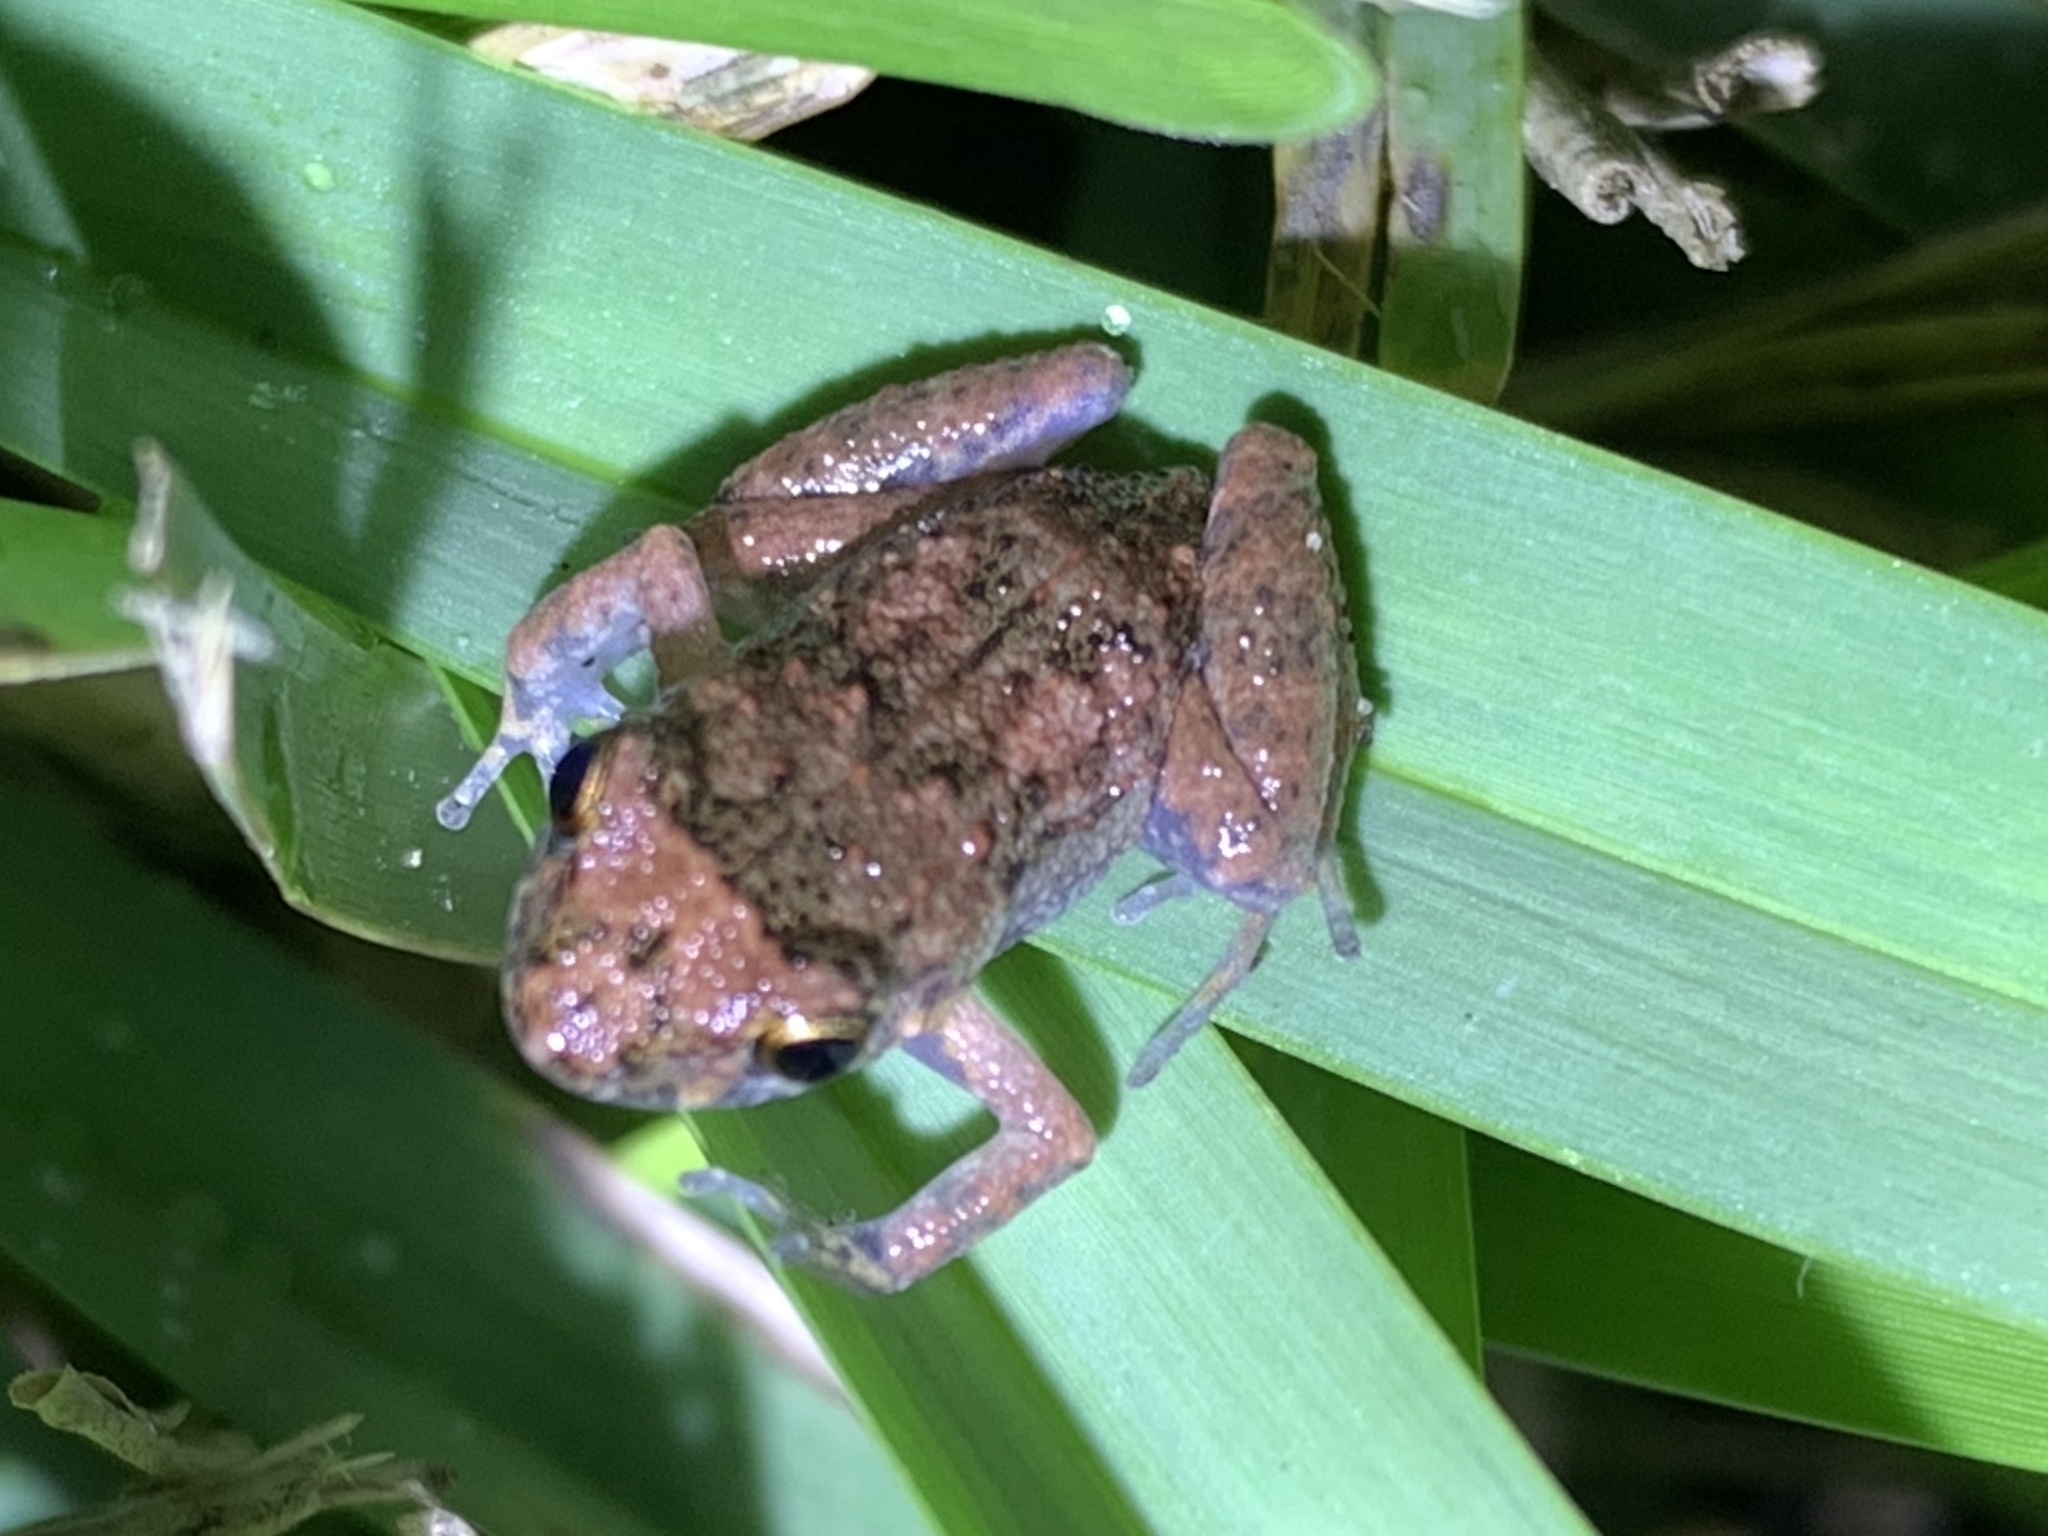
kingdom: Animalia
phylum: Chordata
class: Amphibia
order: Anura
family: Eleutherodactylidae
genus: Eleutherodactylus
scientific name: Eleutherodactylus planirostris
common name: Greenhouse frog
